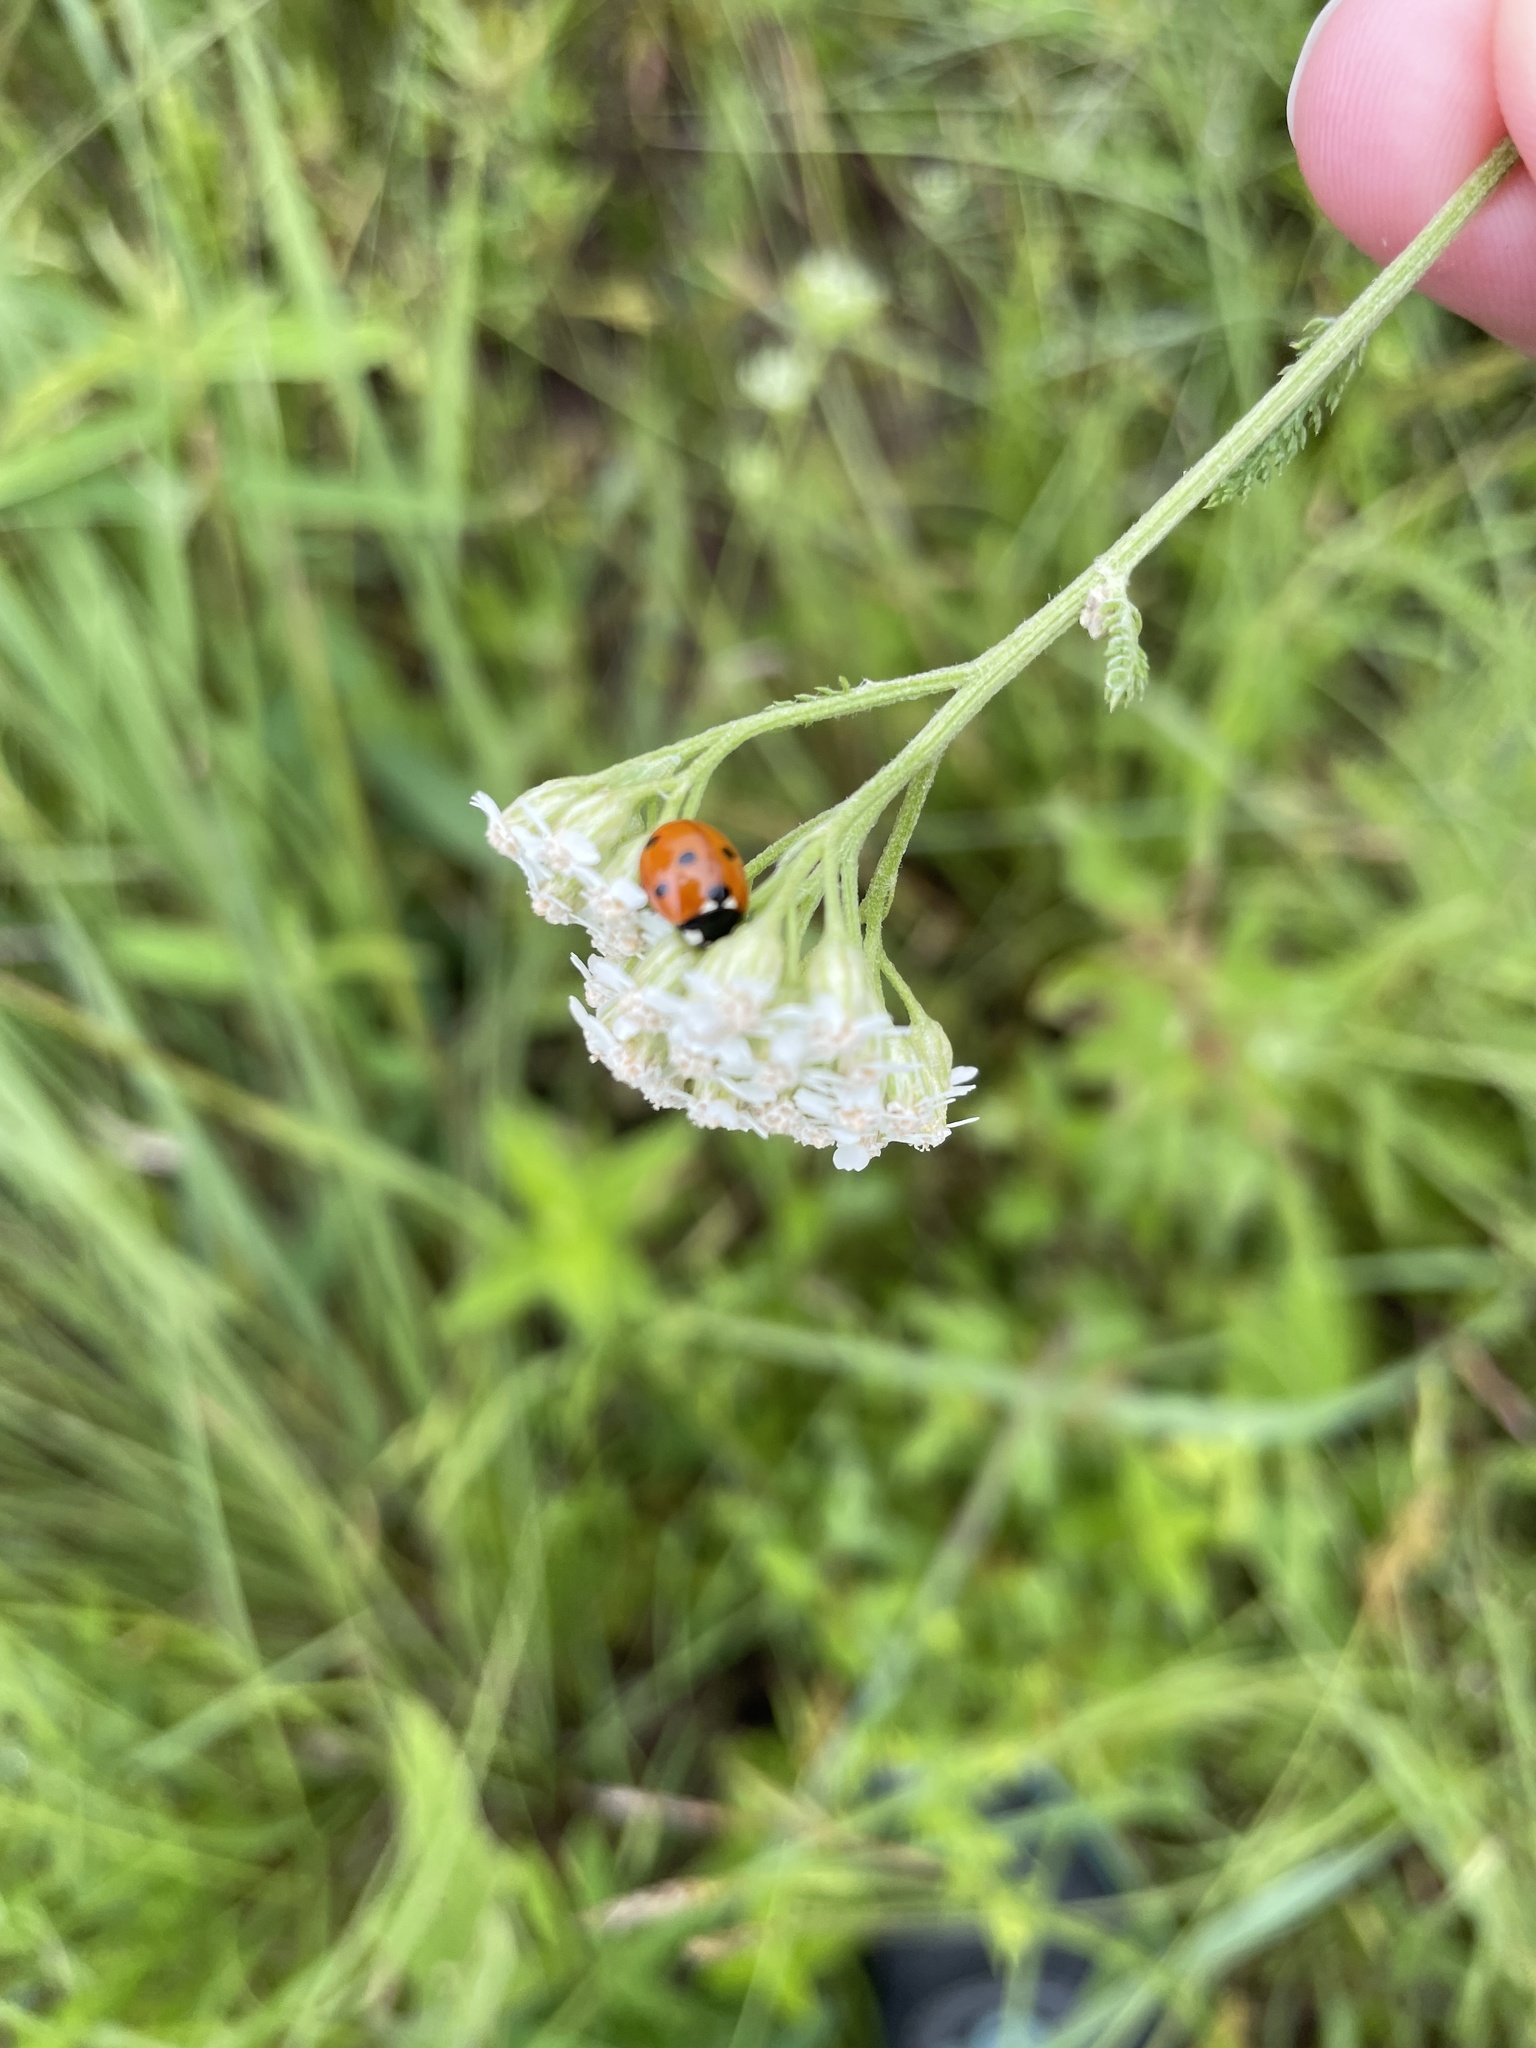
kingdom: Animalia
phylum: Arthropoda
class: Insecta
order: Coleoptera
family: Coccinellidae
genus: Coccinella
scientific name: Coccinella septempunctata
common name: Sevenspotted lady beetle
